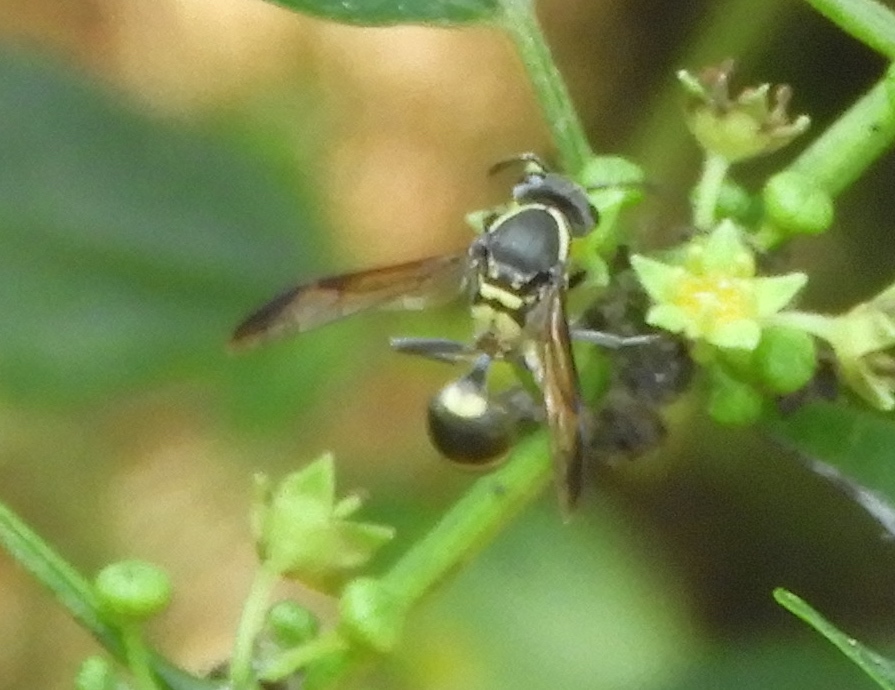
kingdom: Animalia
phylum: Arthropoda
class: Insecta
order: Hymenoptera
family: Vespidae
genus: Myrapetra
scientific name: Myrapetra
